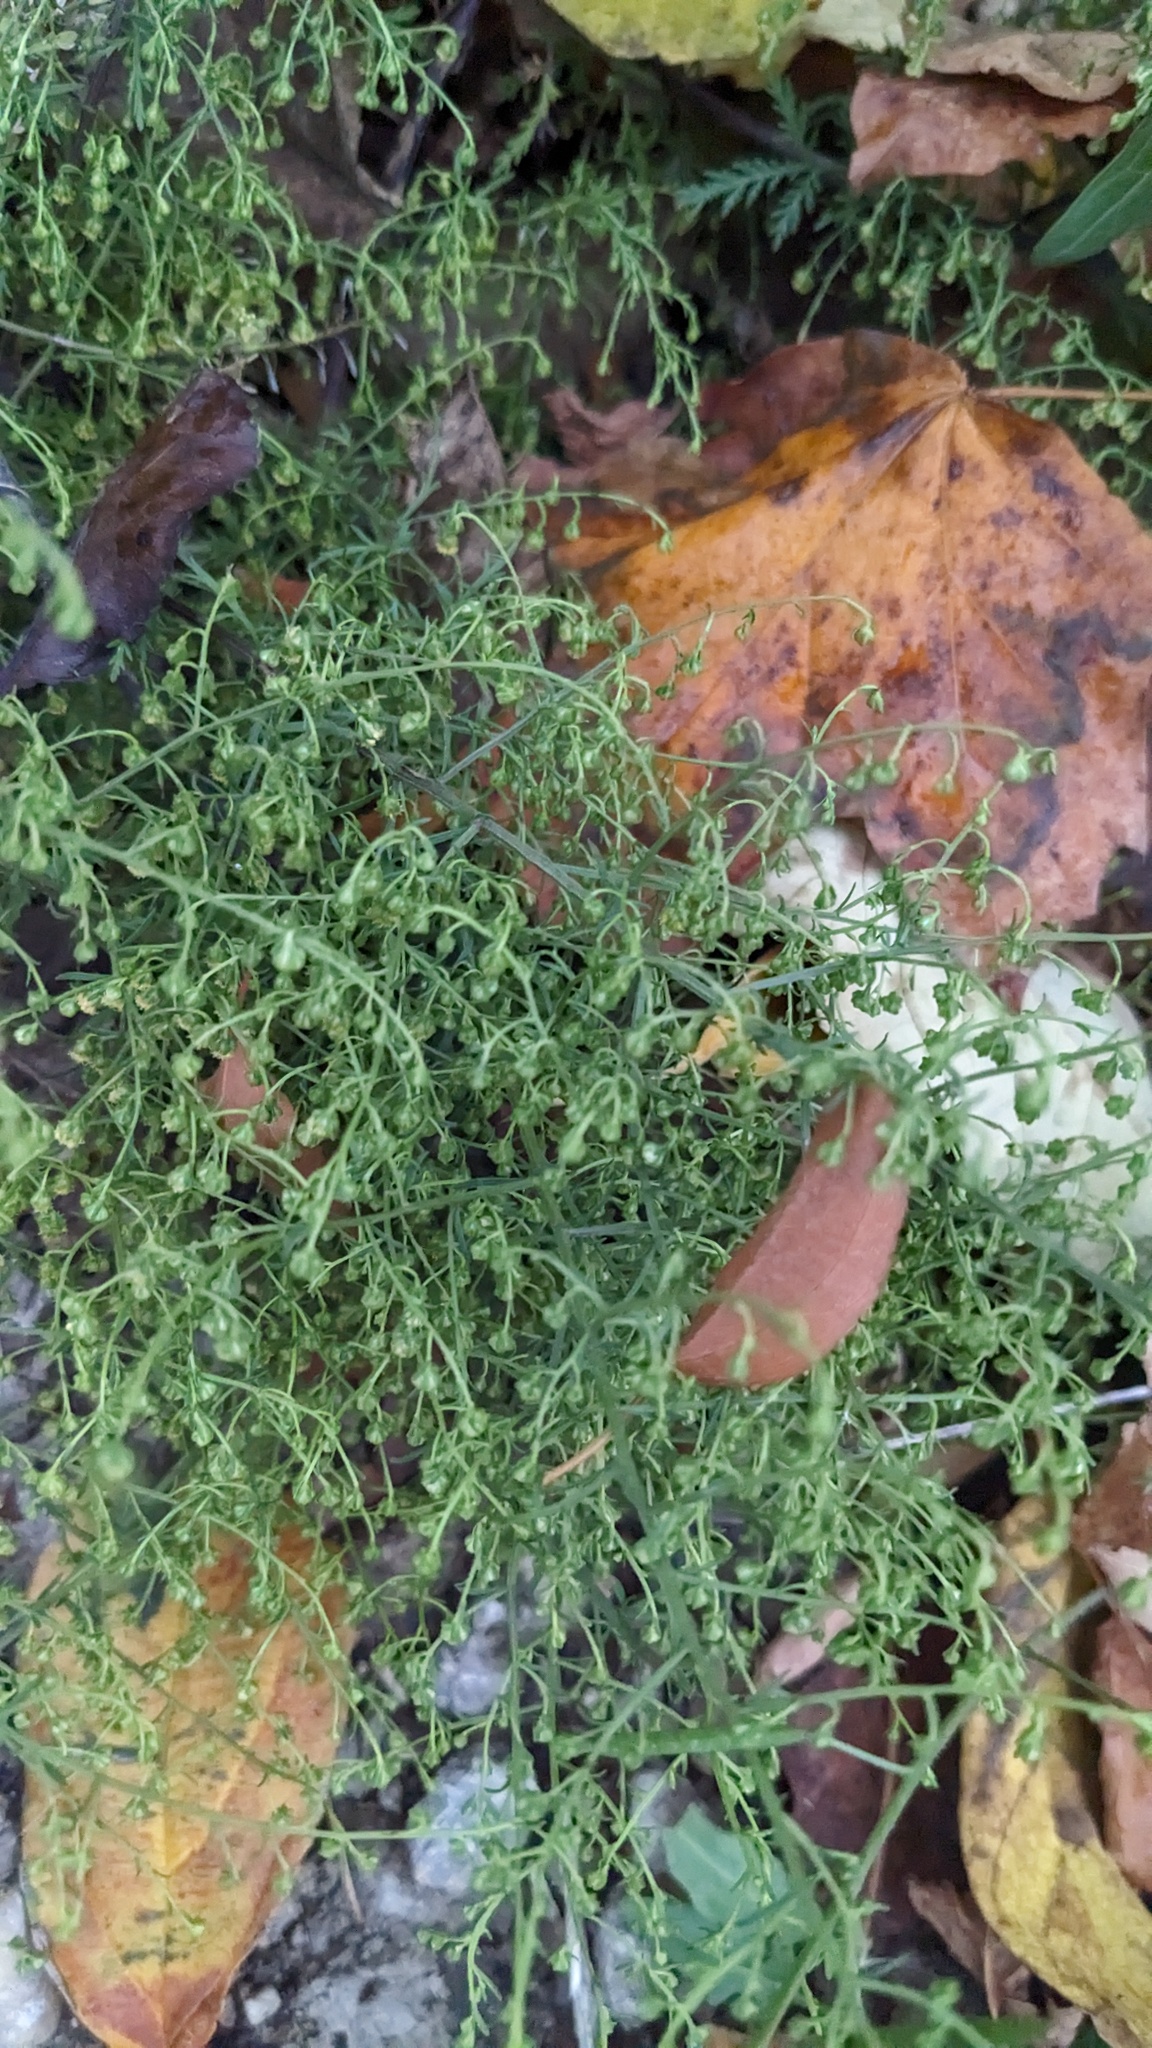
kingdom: Plantae
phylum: Tracheophyta
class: Magnoliopsida
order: Asterales
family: Asteraceae
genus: Artemisia
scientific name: Artemisia annua
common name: Sweet sagewort
